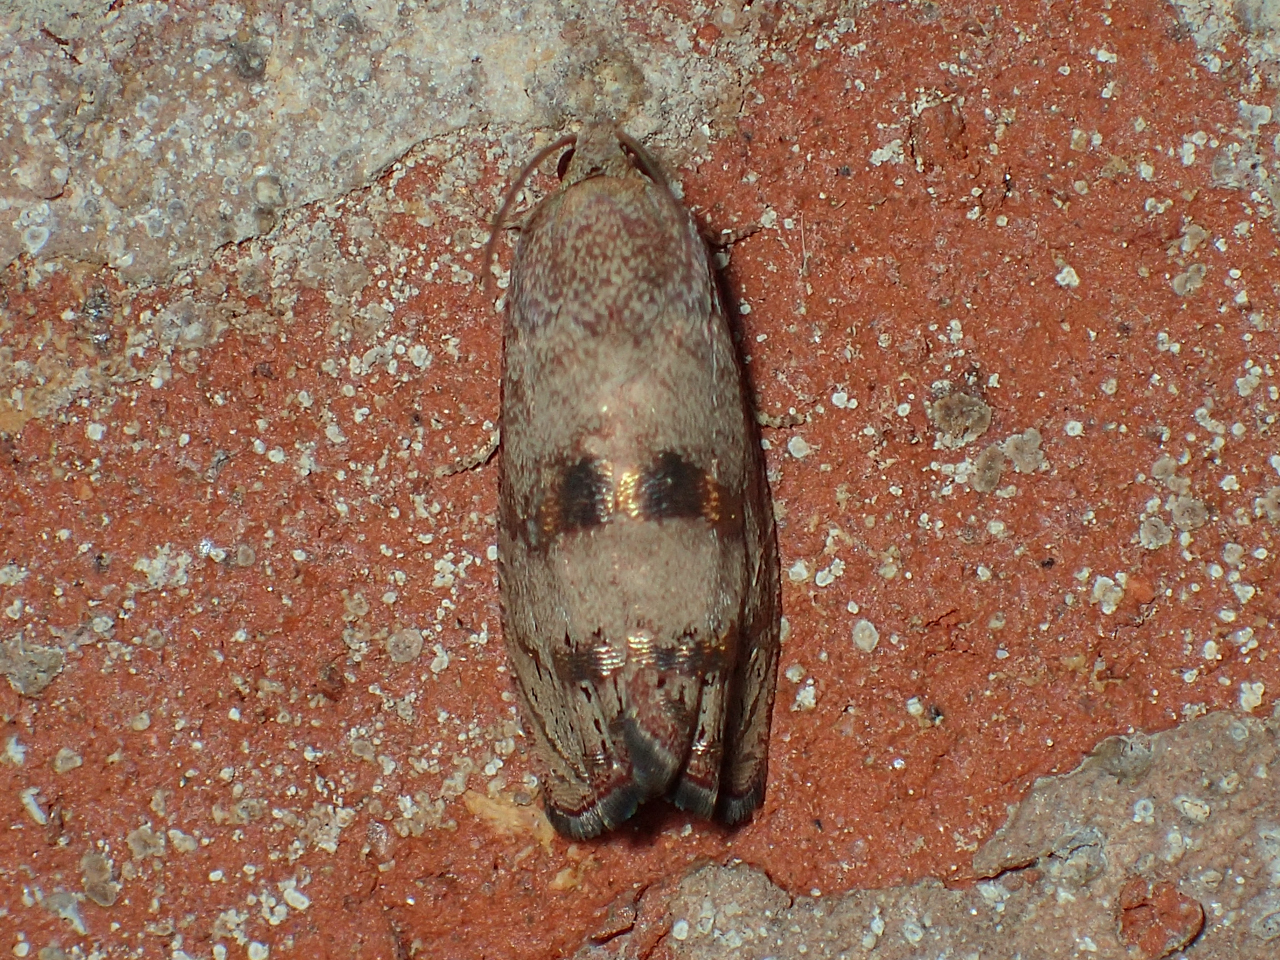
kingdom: Animalia
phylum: Arthropoda
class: Insecta
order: Lepidoptera
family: Tortricidae
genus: Cydia
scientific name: Cydia latiferreana
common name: Filbertworm moth
